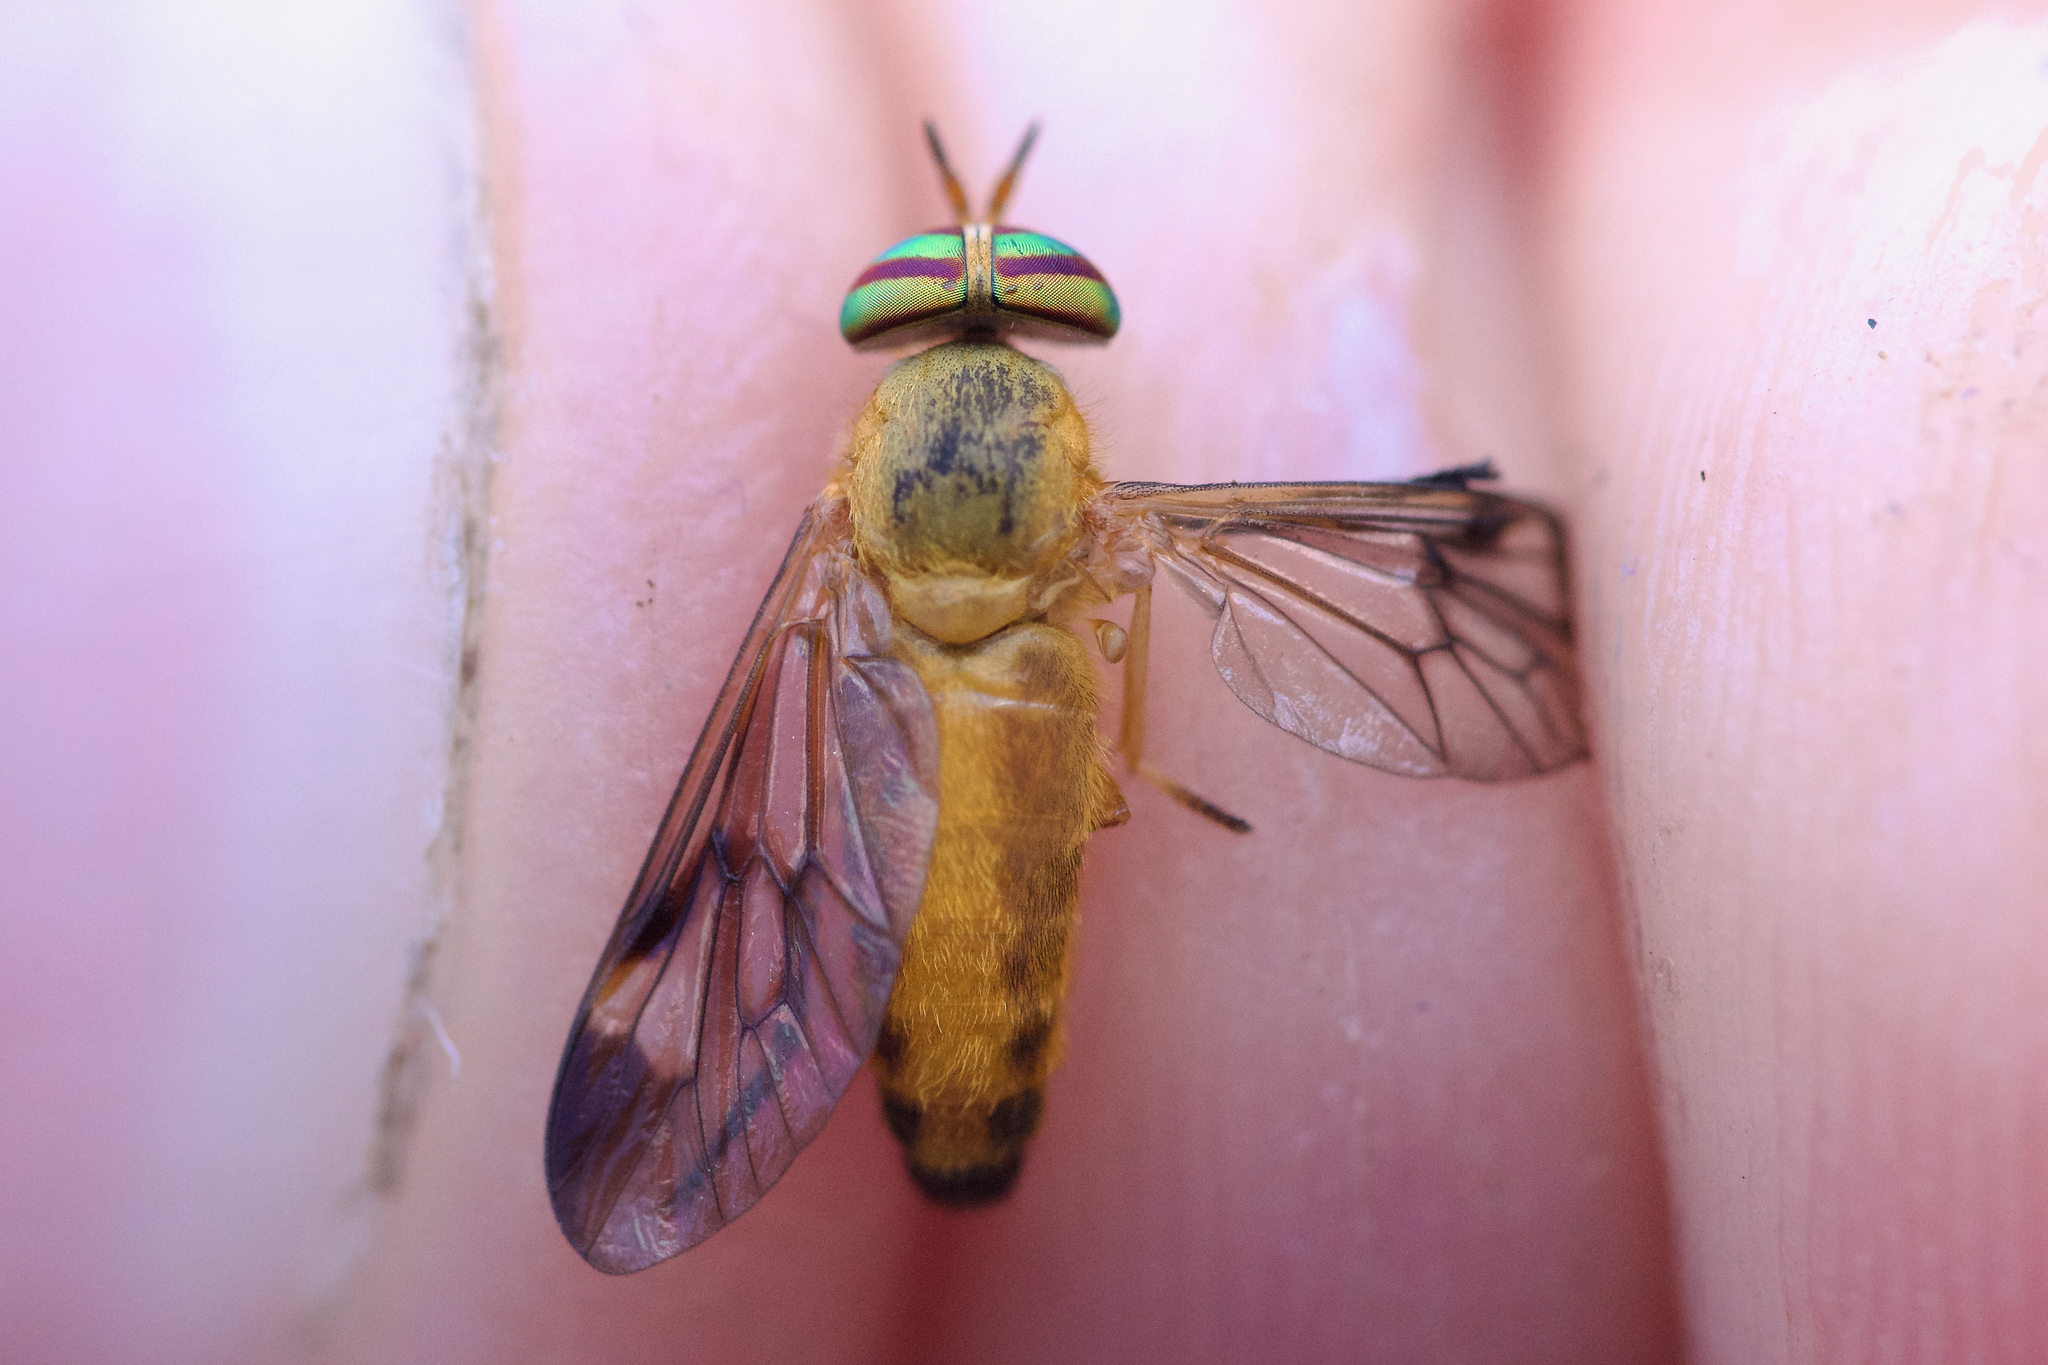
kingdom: Animalia
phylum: Arthropoda
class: Insecta
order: Diptera
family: Tabanidae
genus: Diachlorus
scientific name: Diachlorus ferrugatus
